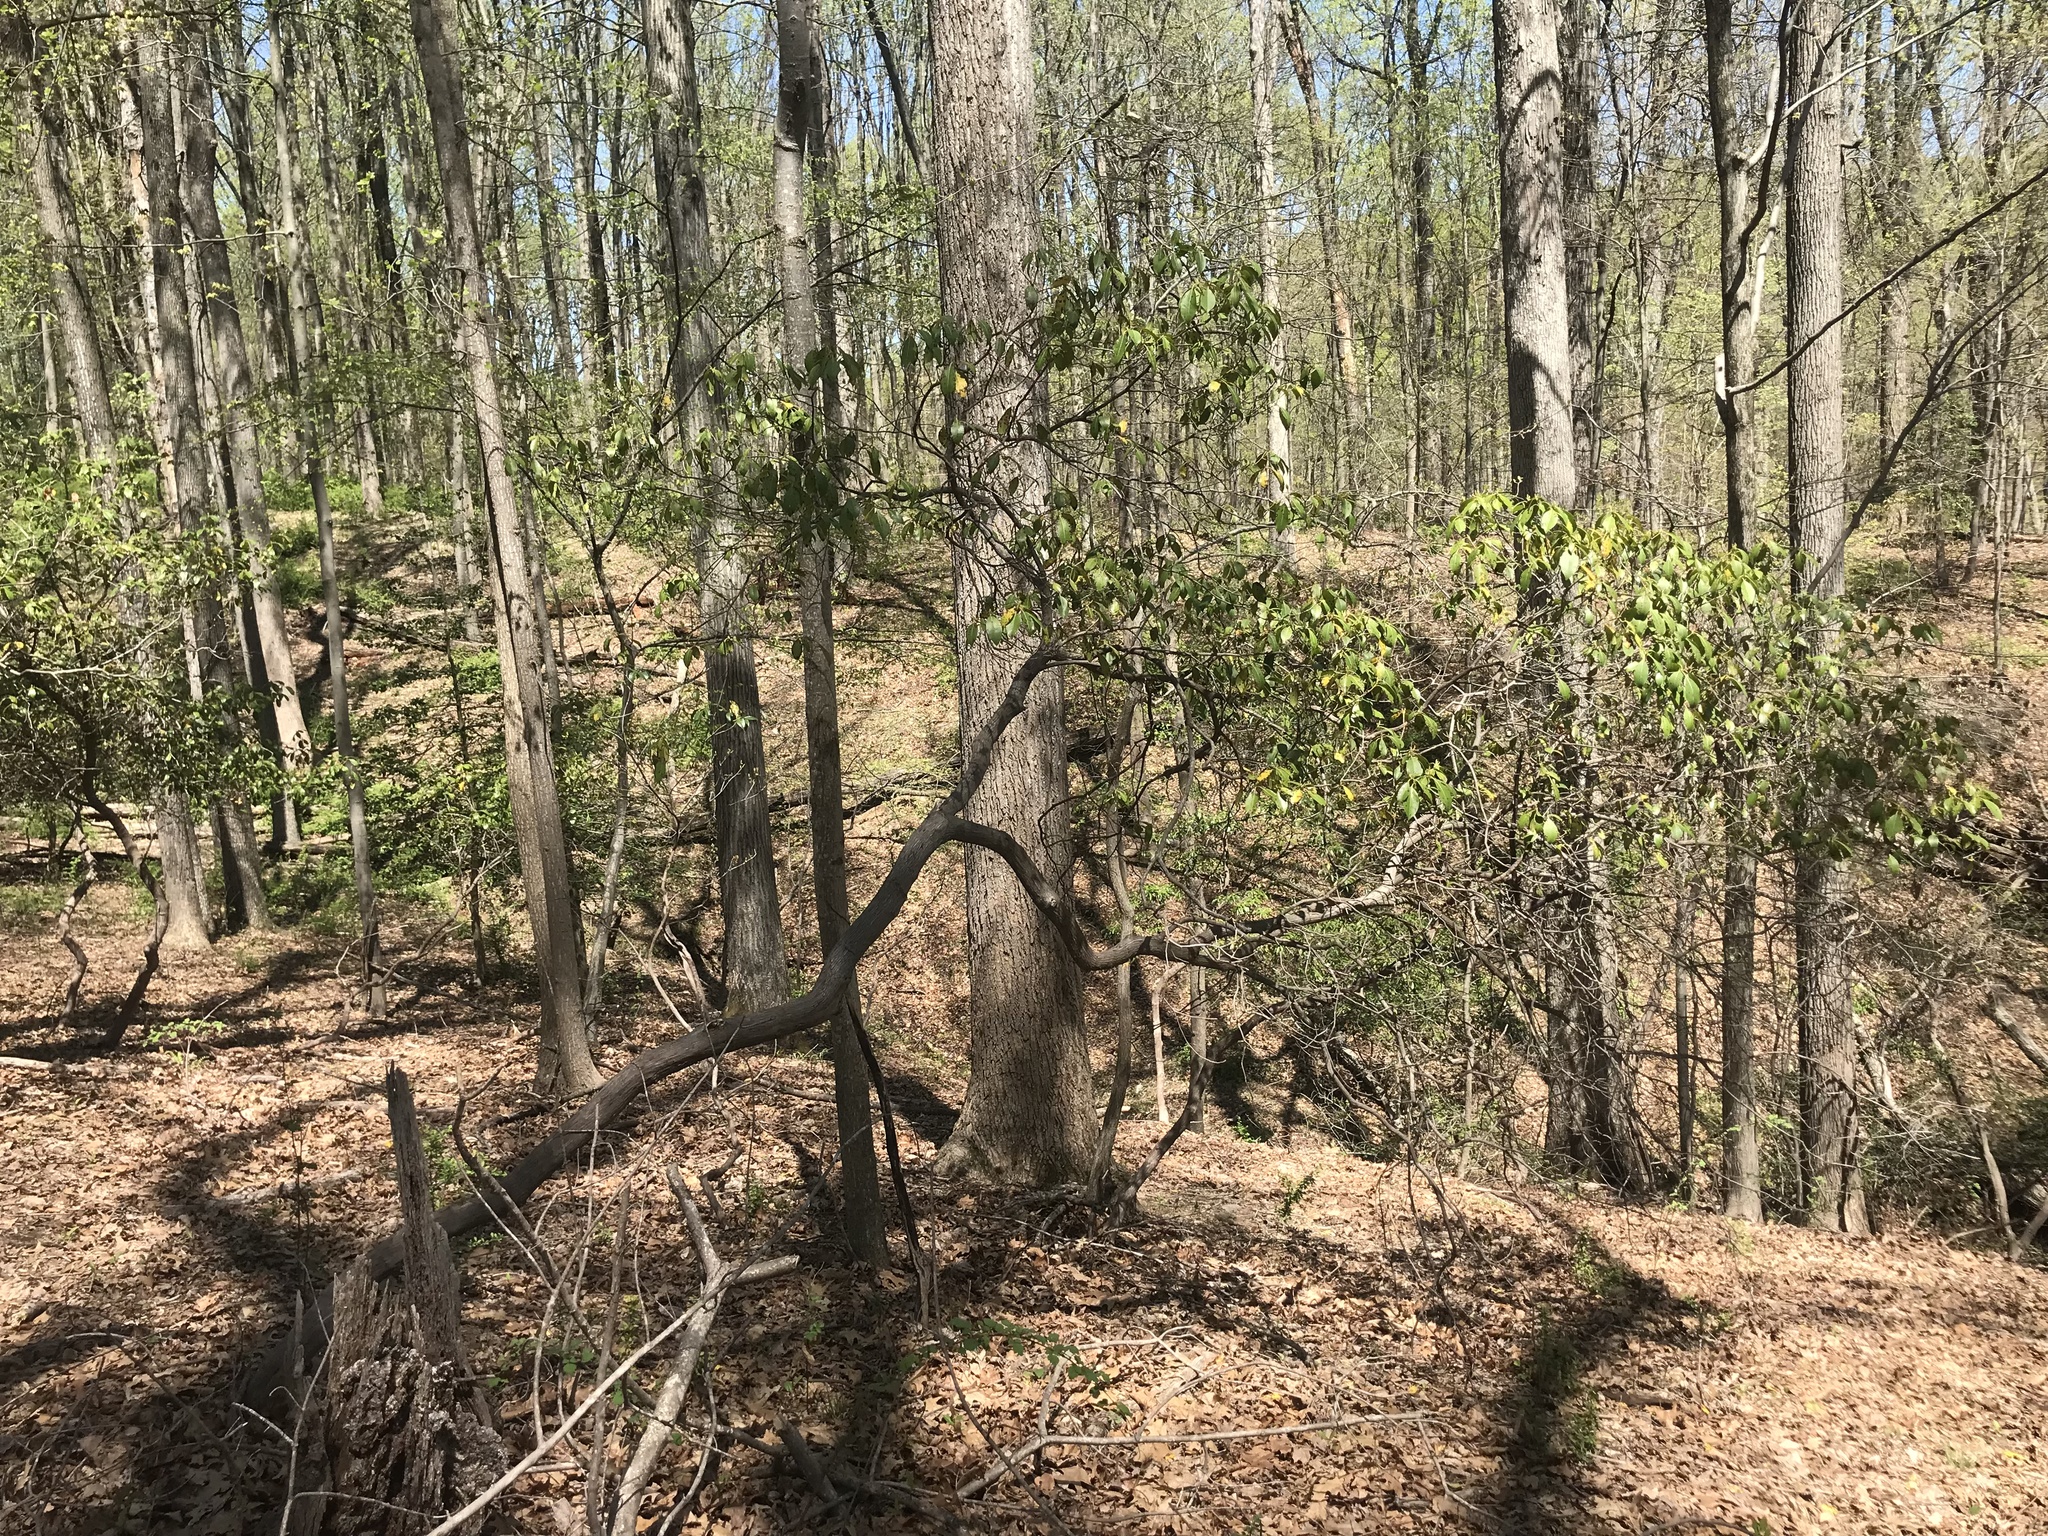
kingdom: Plantae
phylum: Tracheophyta
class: Magnoliopsida
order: Ericales
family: Ericaceae
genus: Kalmia
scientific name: Kalmia latifolia
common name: Mountain-laurel
